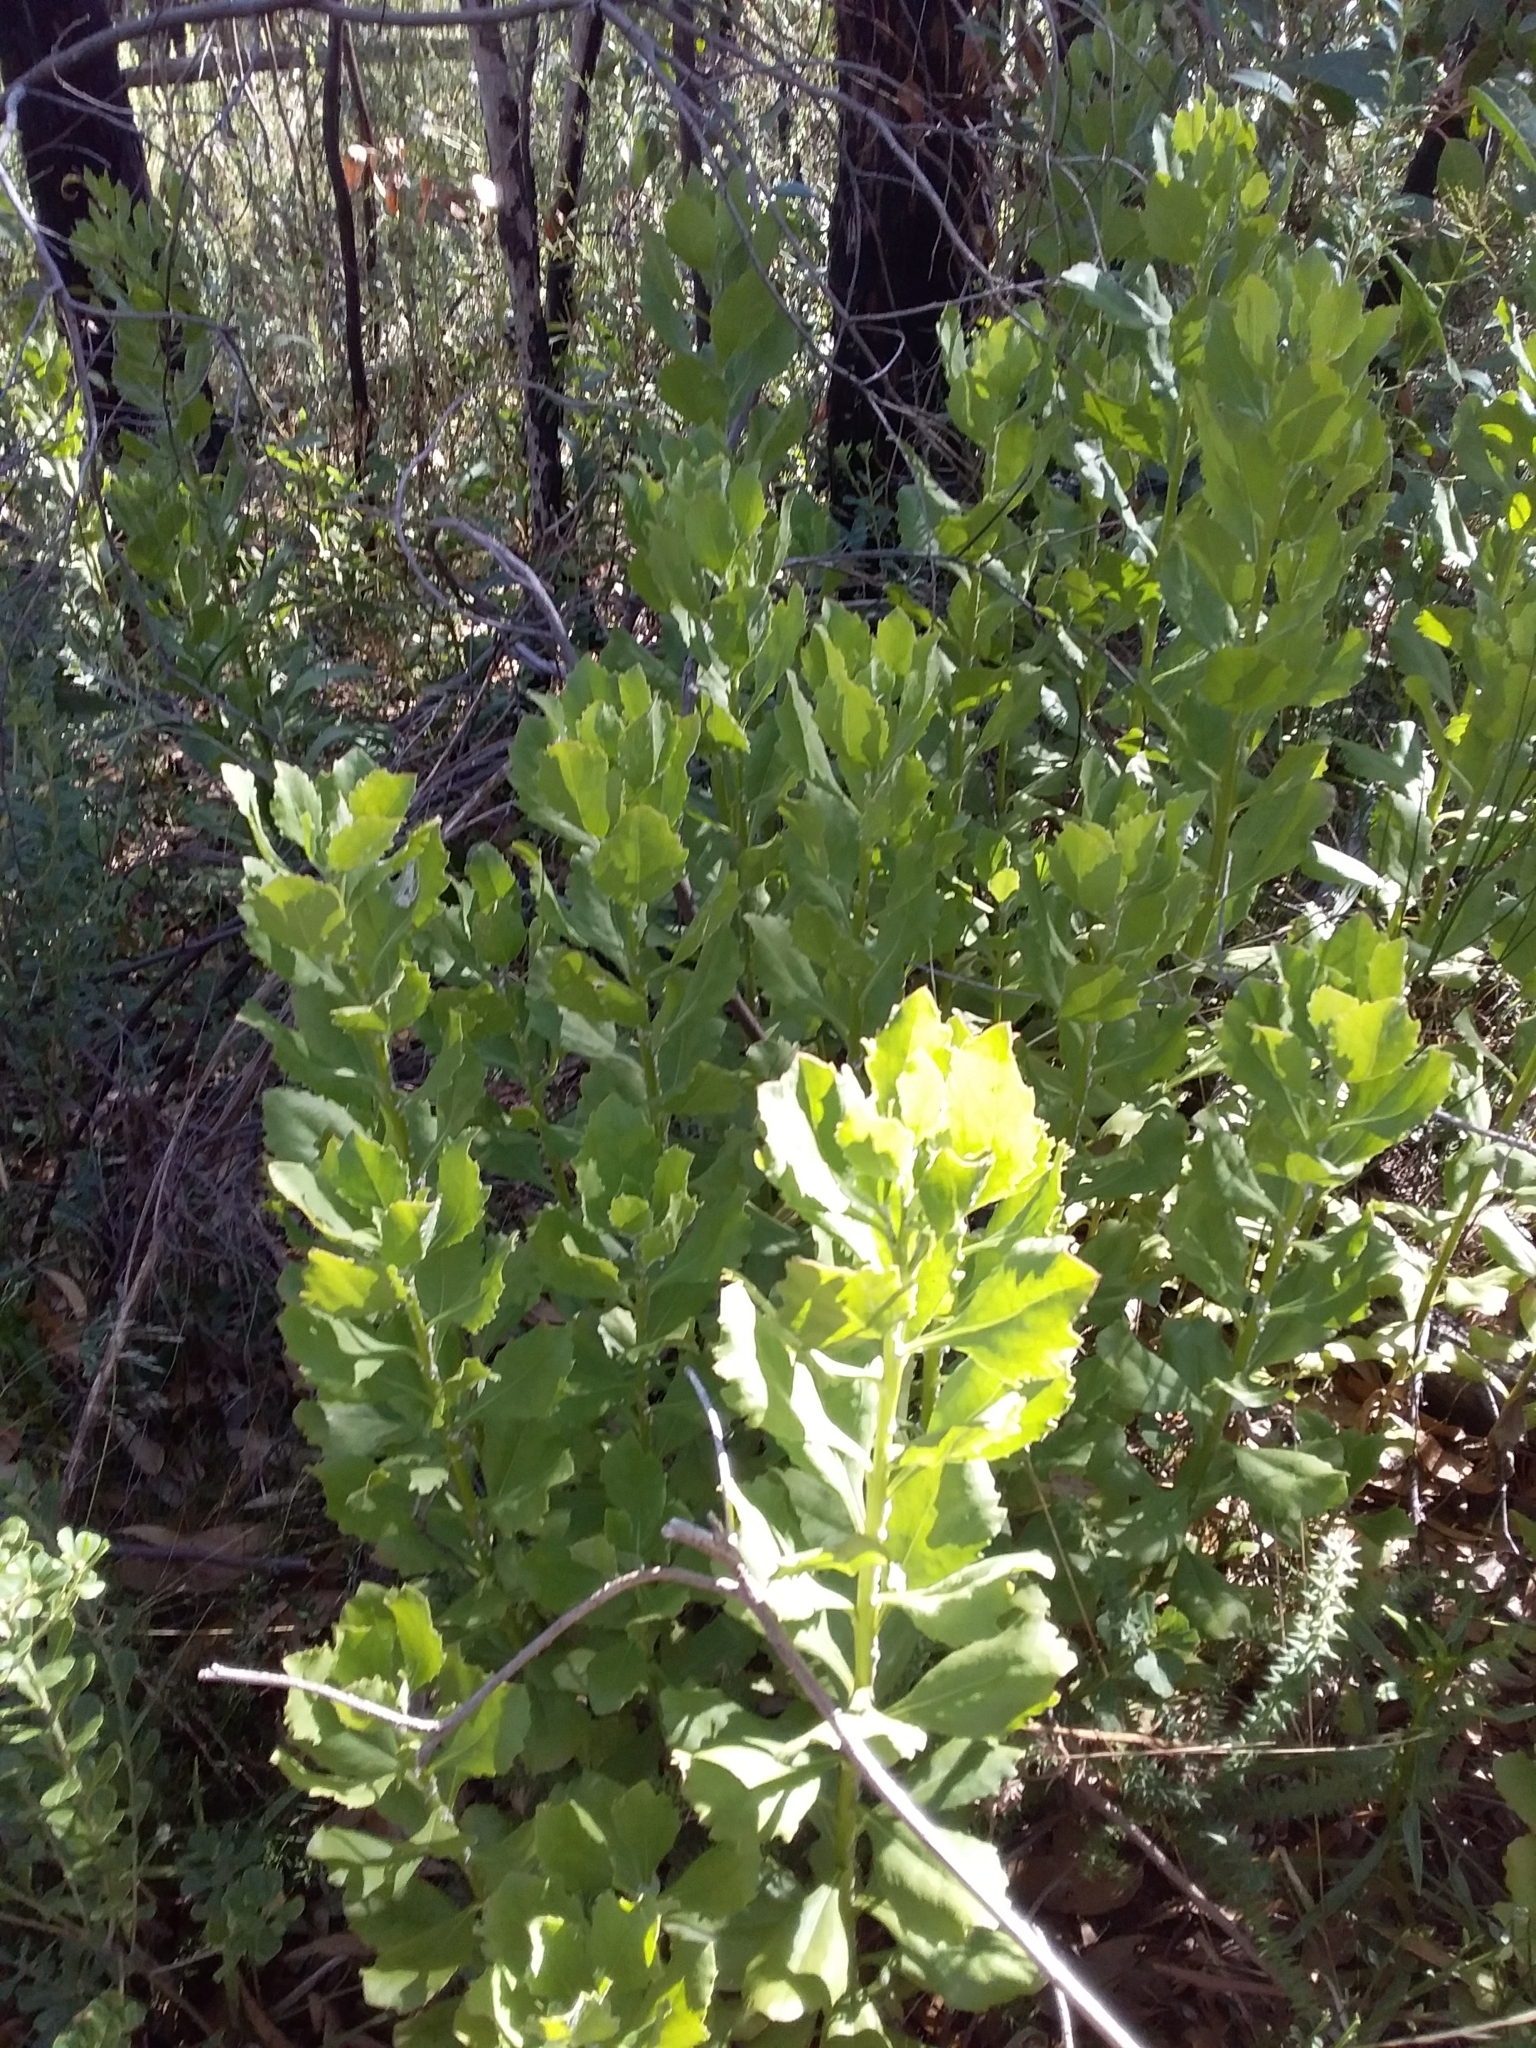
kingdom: Plantae
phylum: Tracheophyta
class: Magnoliopsida
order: Asterales
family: Asteraceae
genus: Osteospermum
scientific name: Osteospermum moniliferum
